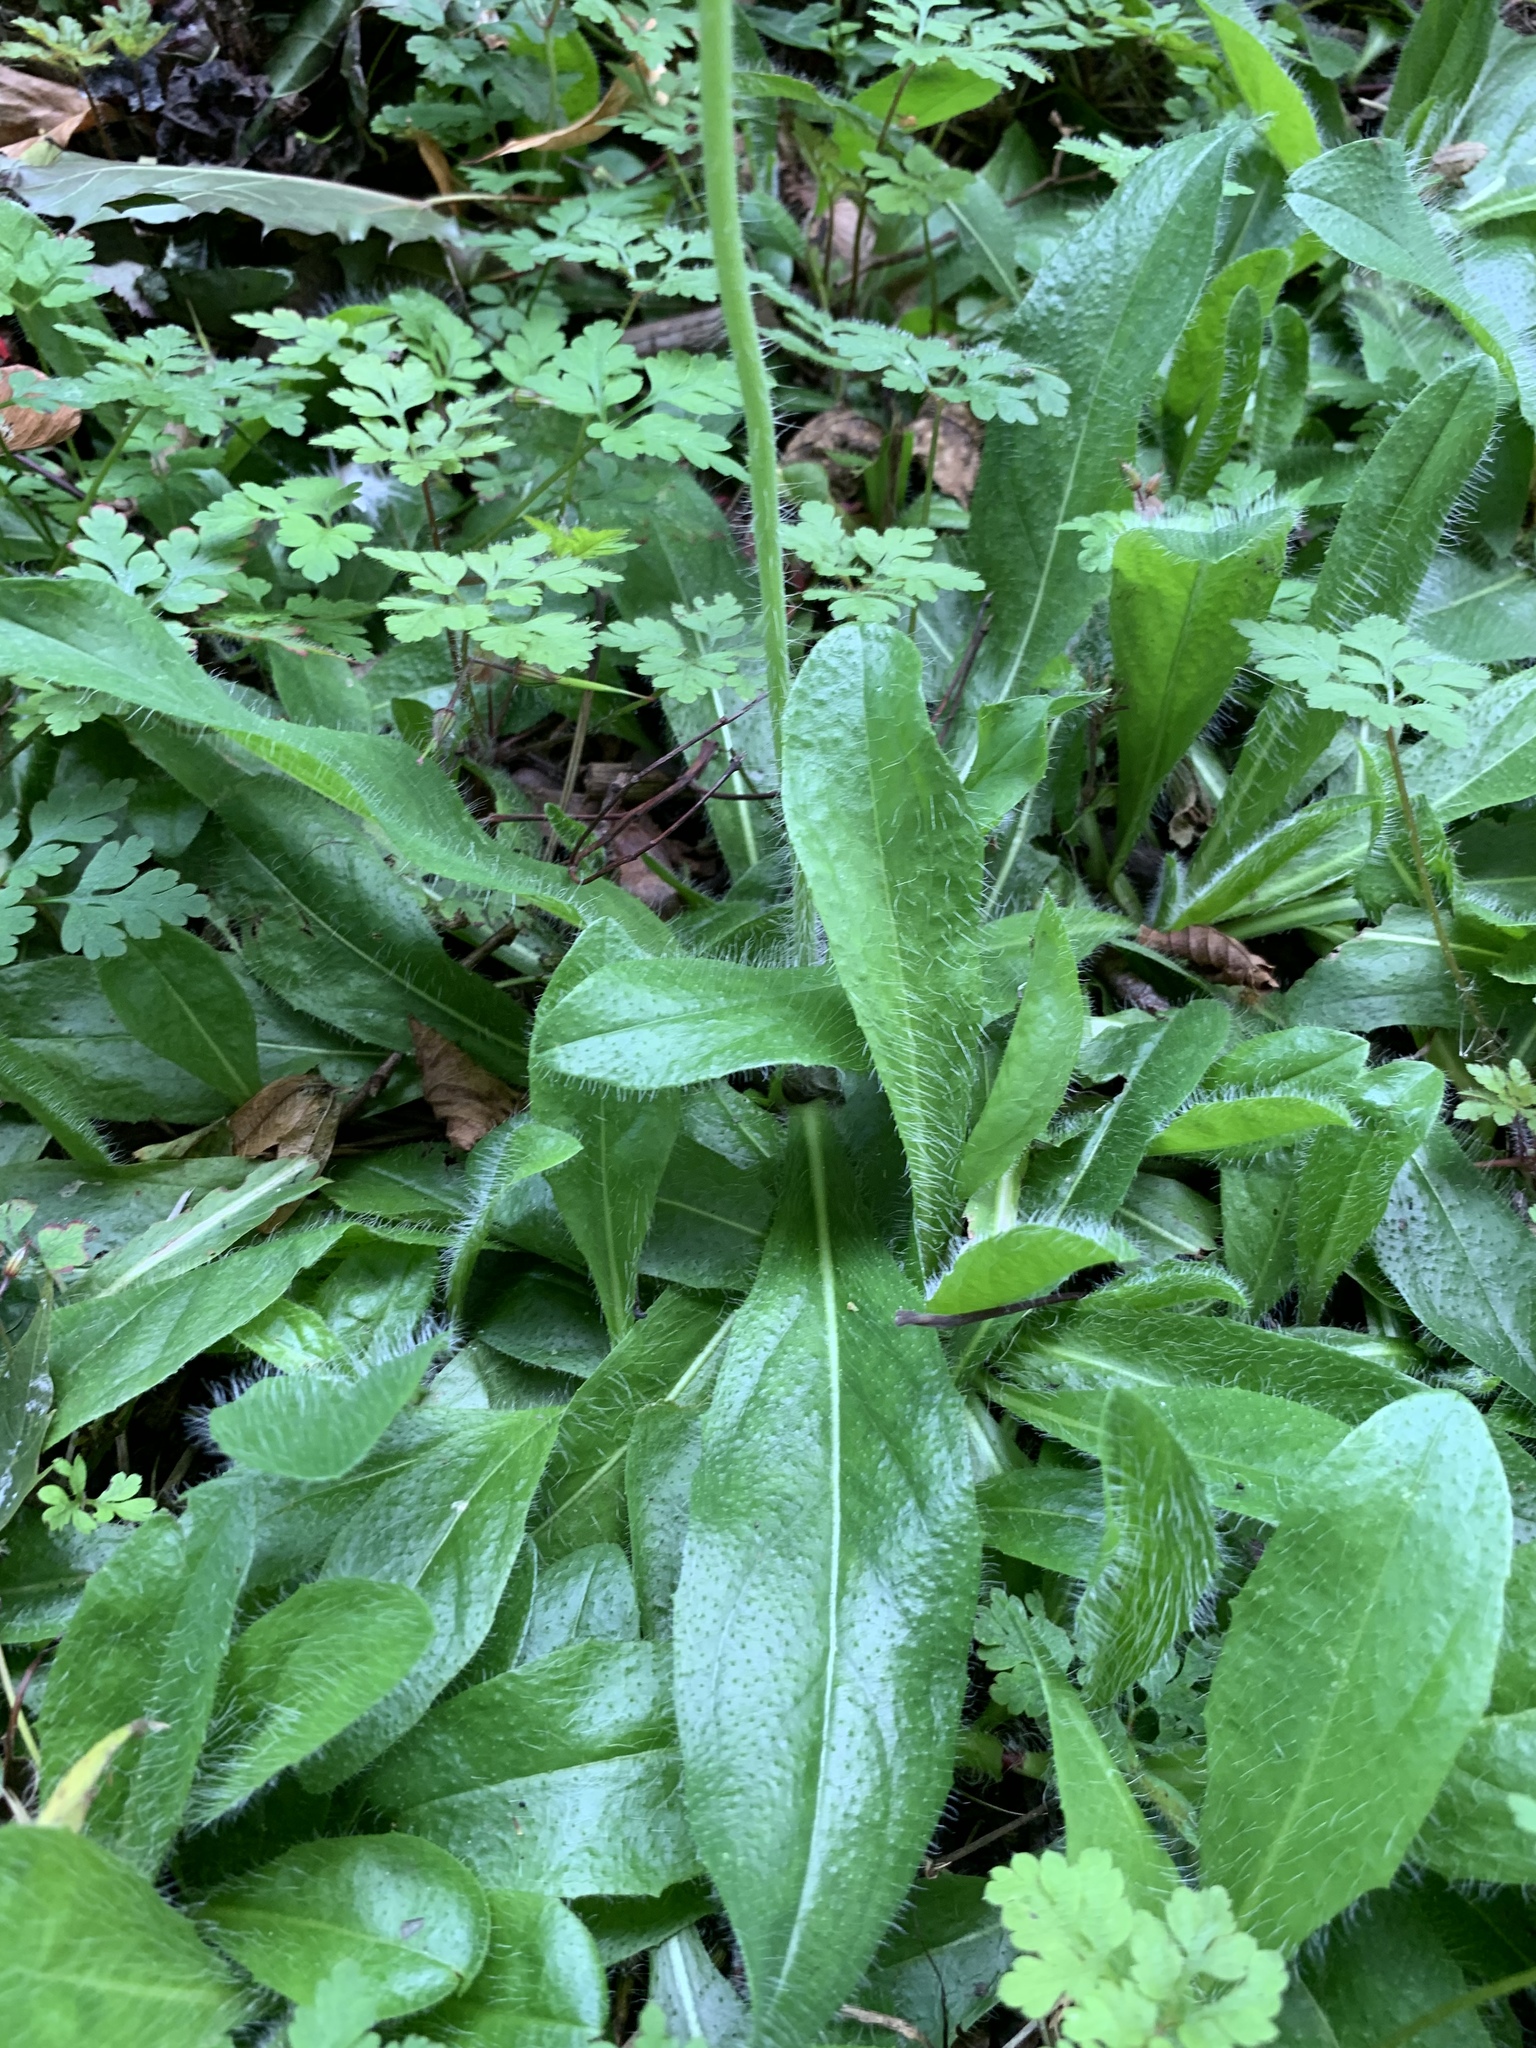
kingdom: Plantae
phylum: Tracheophyta
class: Magnoliopsida
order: Asterales
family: Asteraceae
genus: Pilosella
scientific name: Pilosella aurantiaca
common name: Fox-and-cubs
